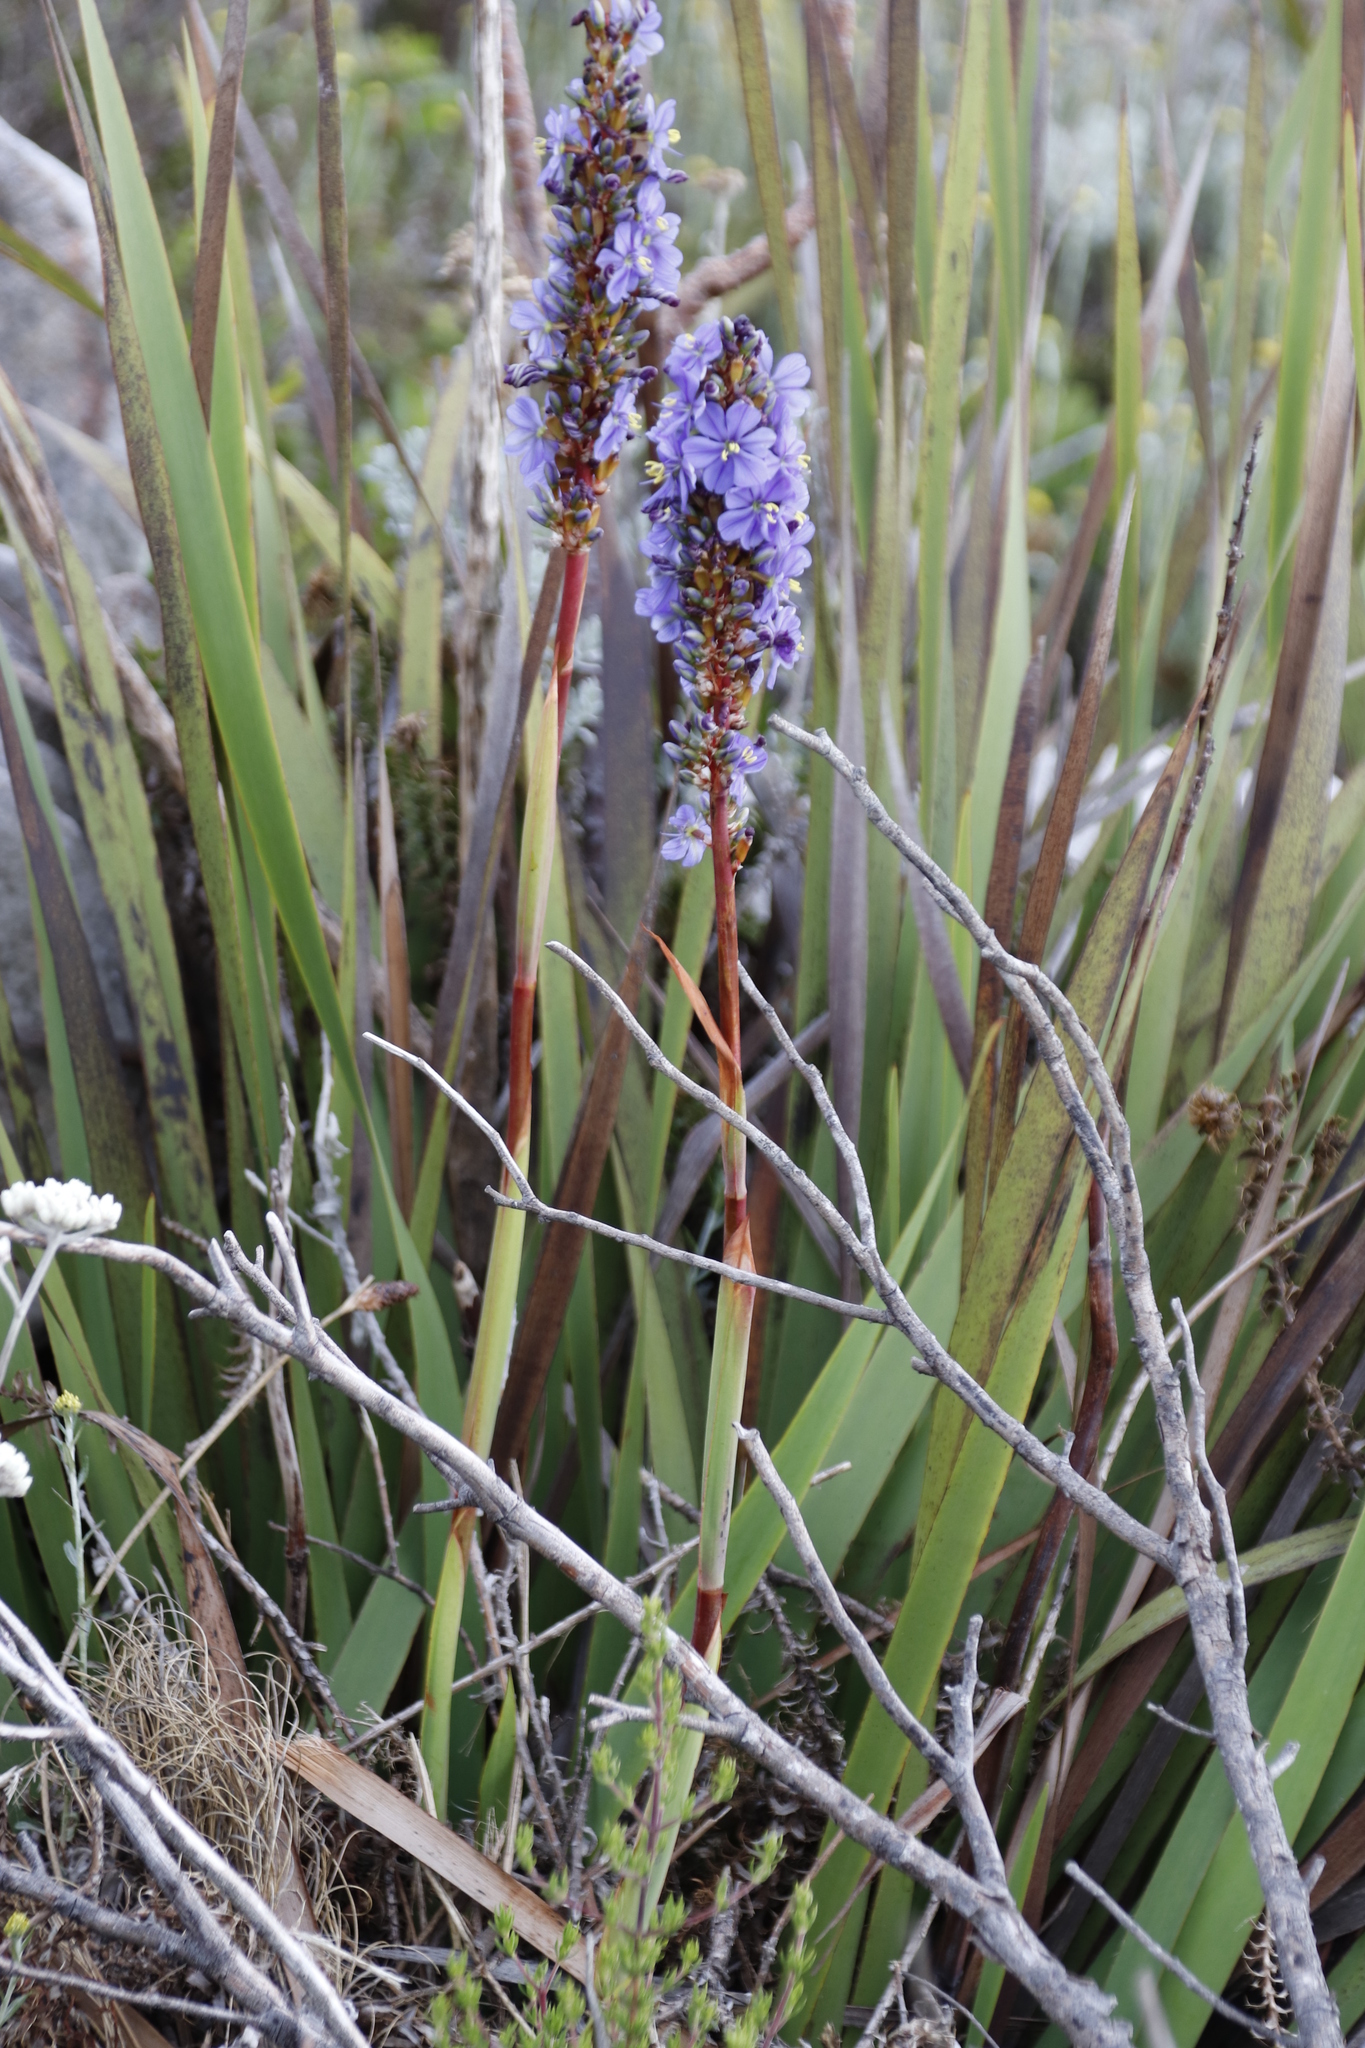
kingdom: Plantae
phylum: Tracheophyta
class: Liliopsida
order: Asparagales
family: Iridaceae
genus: Aristea
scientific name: Aristea capitata
